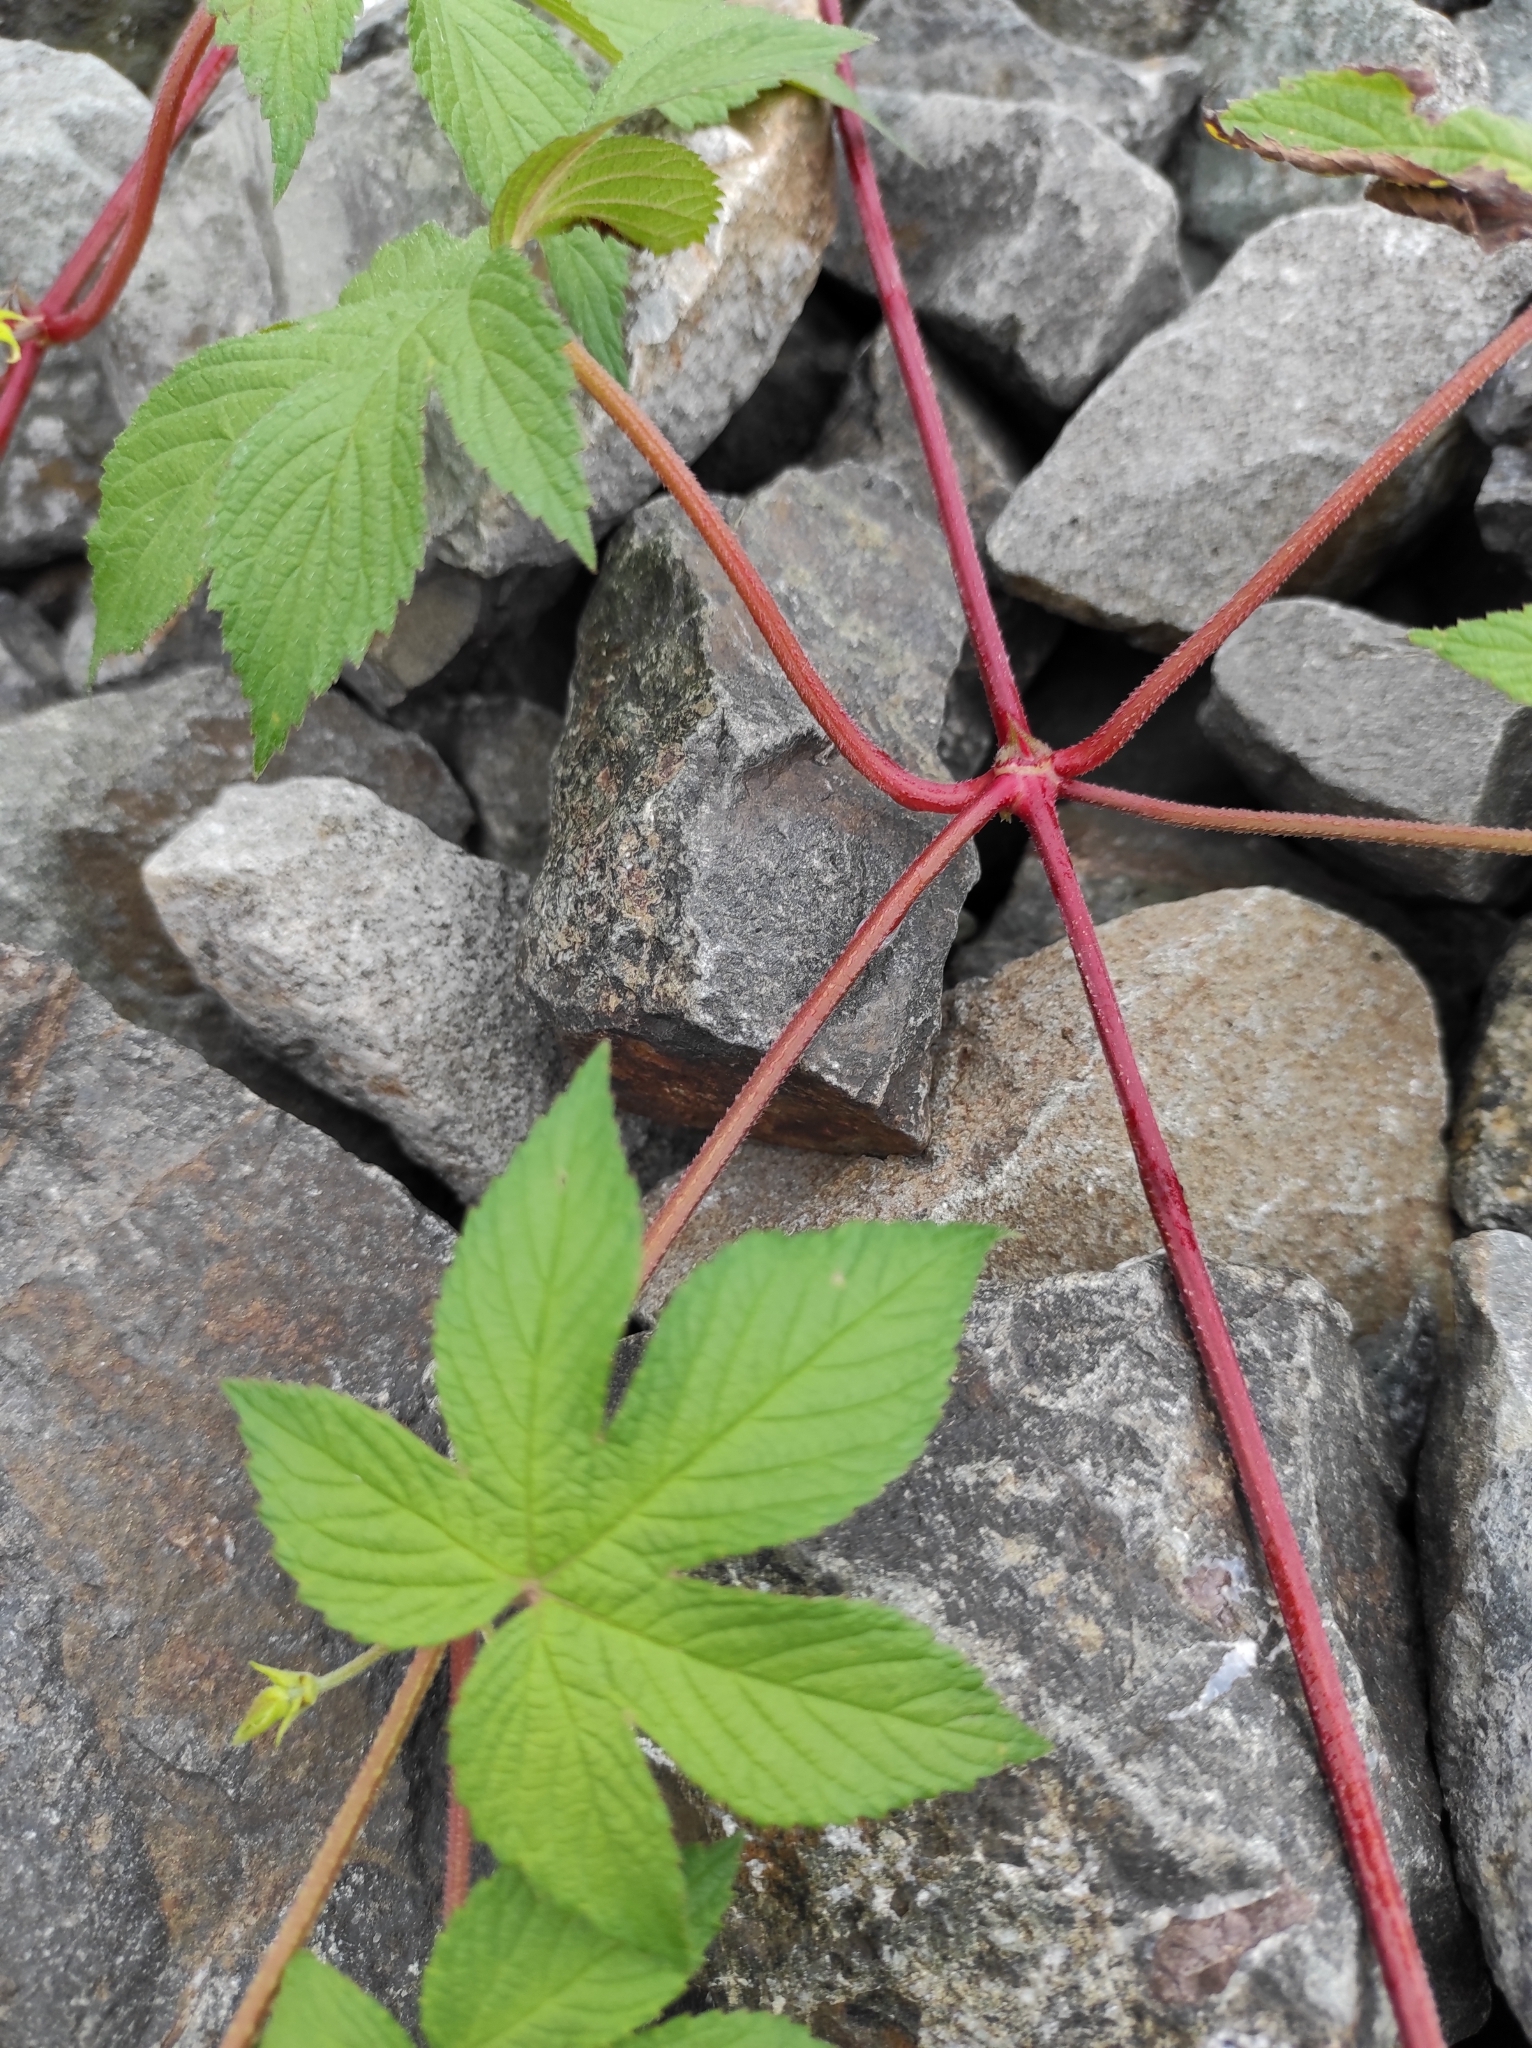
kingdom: Plantae
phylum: Tracheophyta
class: Magnoliopsida
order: Rosales
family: Cannabaceae
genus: Humulus
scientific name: Humulus scandens
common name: Japanese hop
